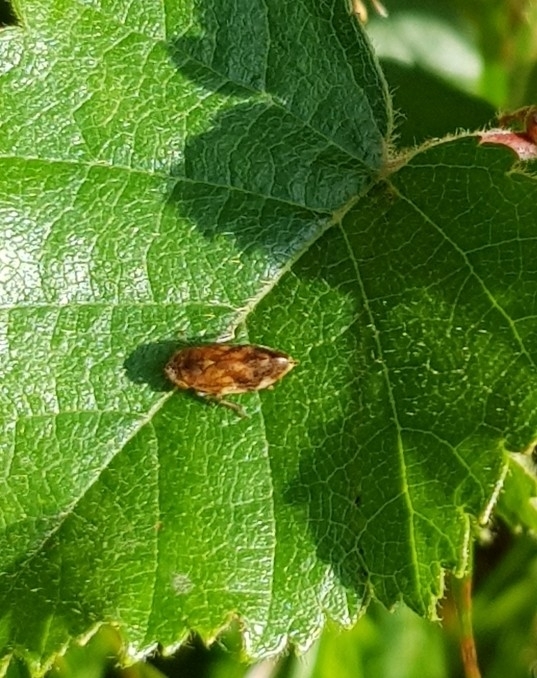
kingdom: Animalia
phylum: Arthropoda
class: Insecta
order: Hemiptera
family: Aphrophoridae
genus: Philaenus
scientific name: Philaenus spumarius
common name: Meadow spittlebug
